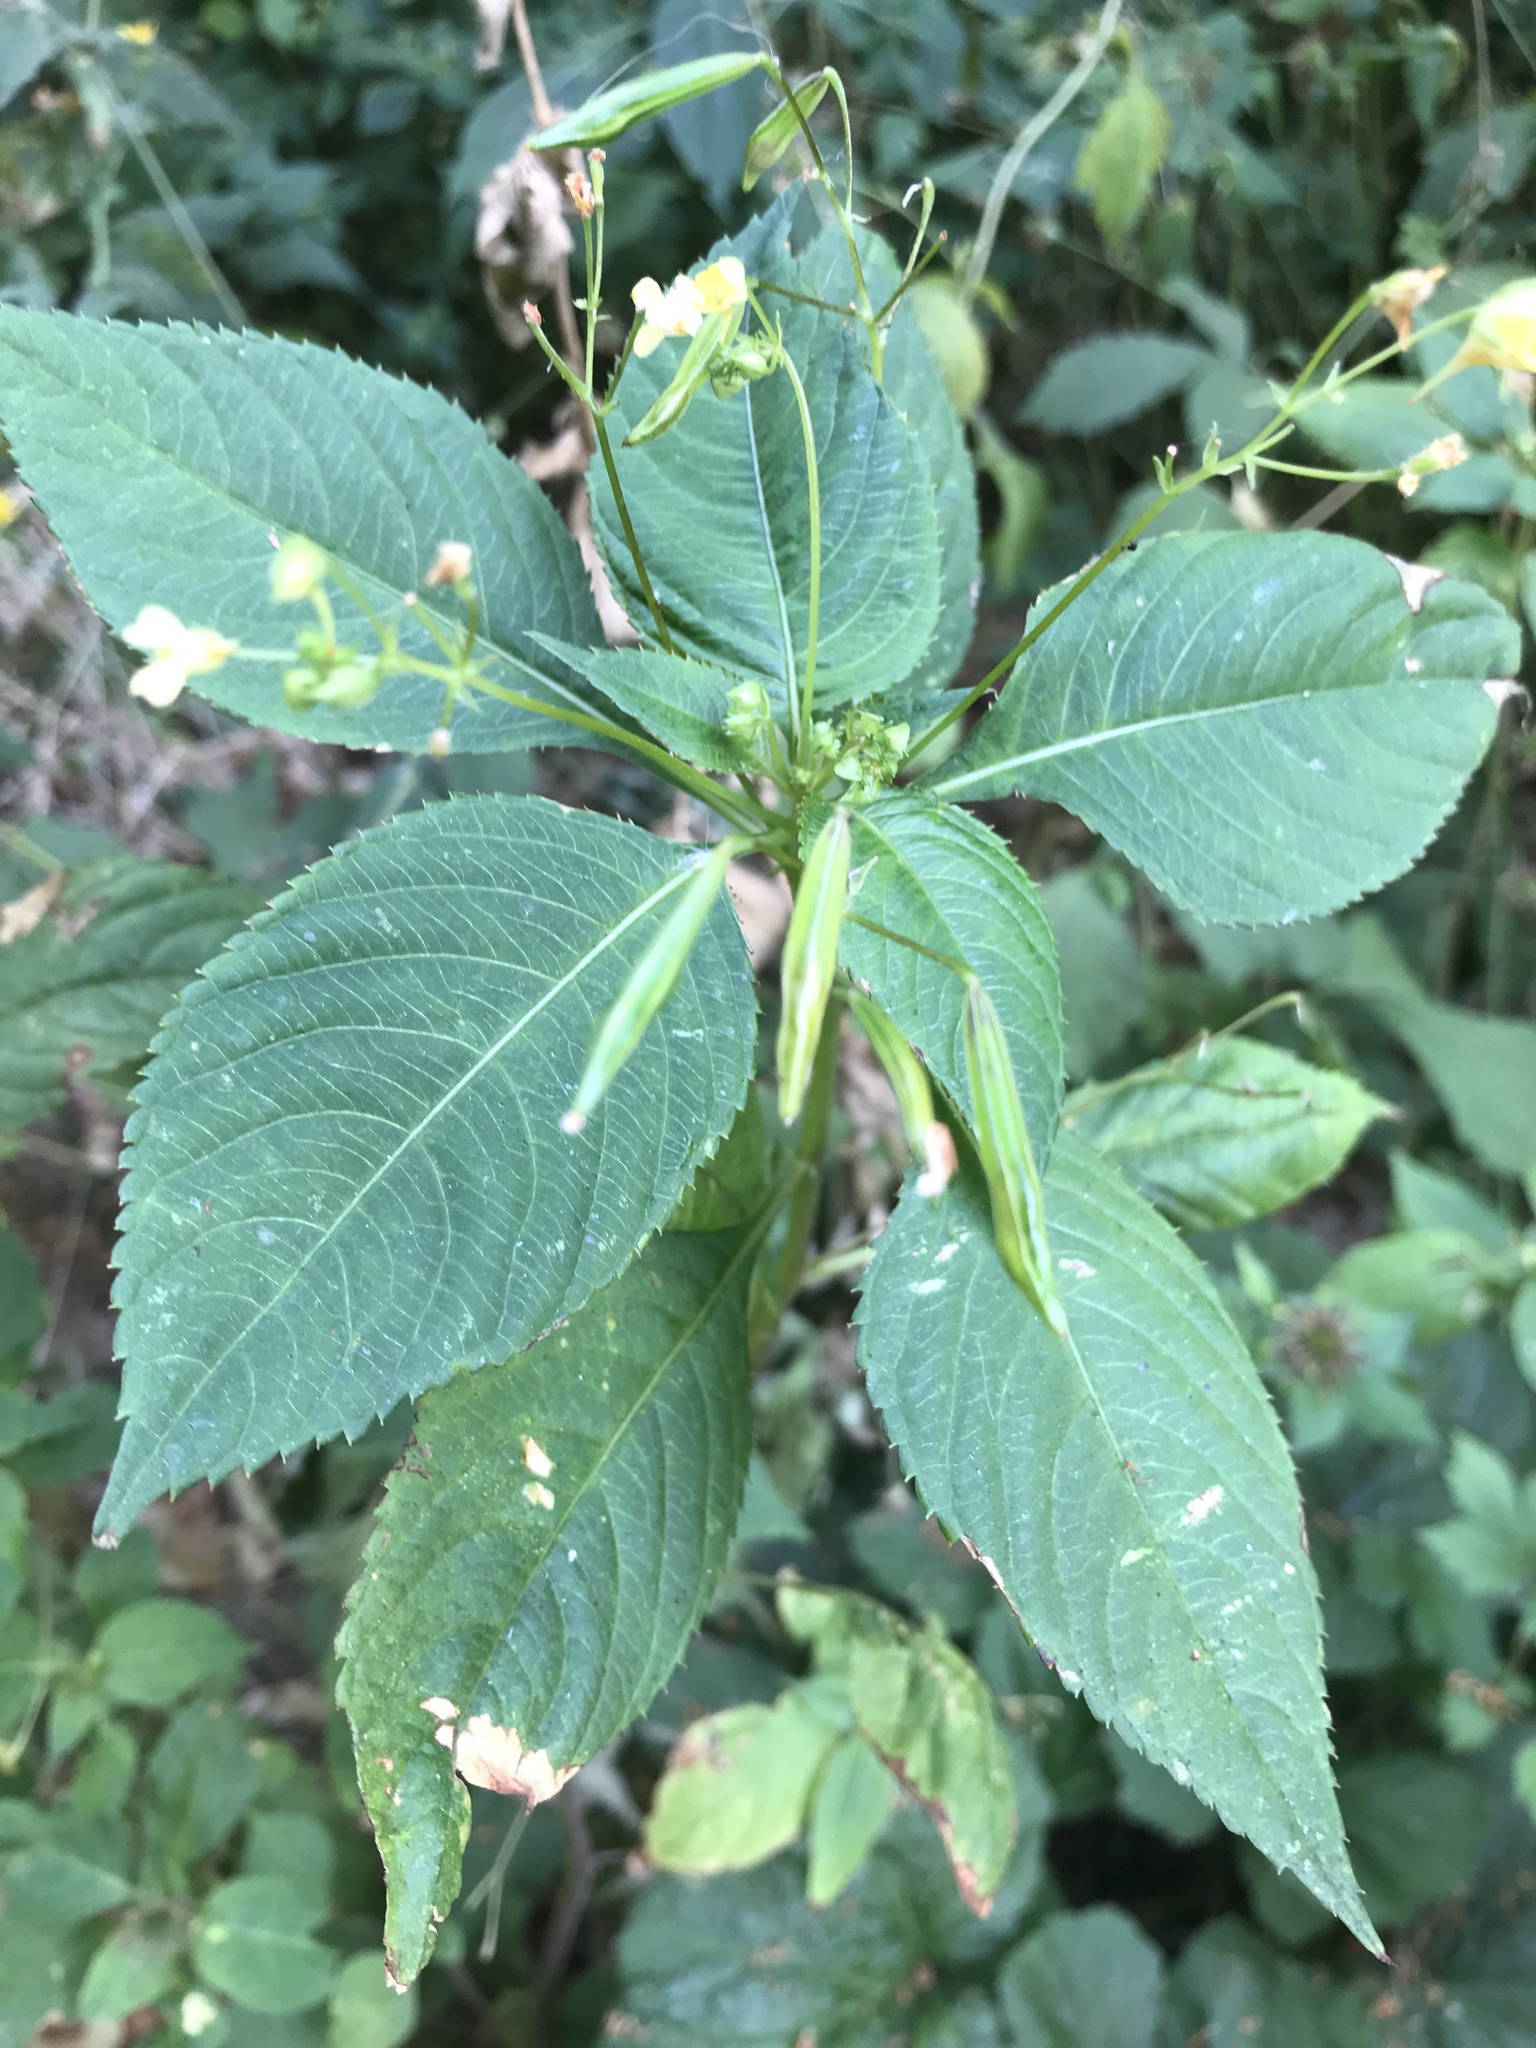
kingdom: Plantae
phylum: Tracheophyta
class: Magnoliopsida
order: Ericales
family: Balsaminaceae
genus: Impatiens
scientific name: Impatiens parviflora
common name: Small balsam
